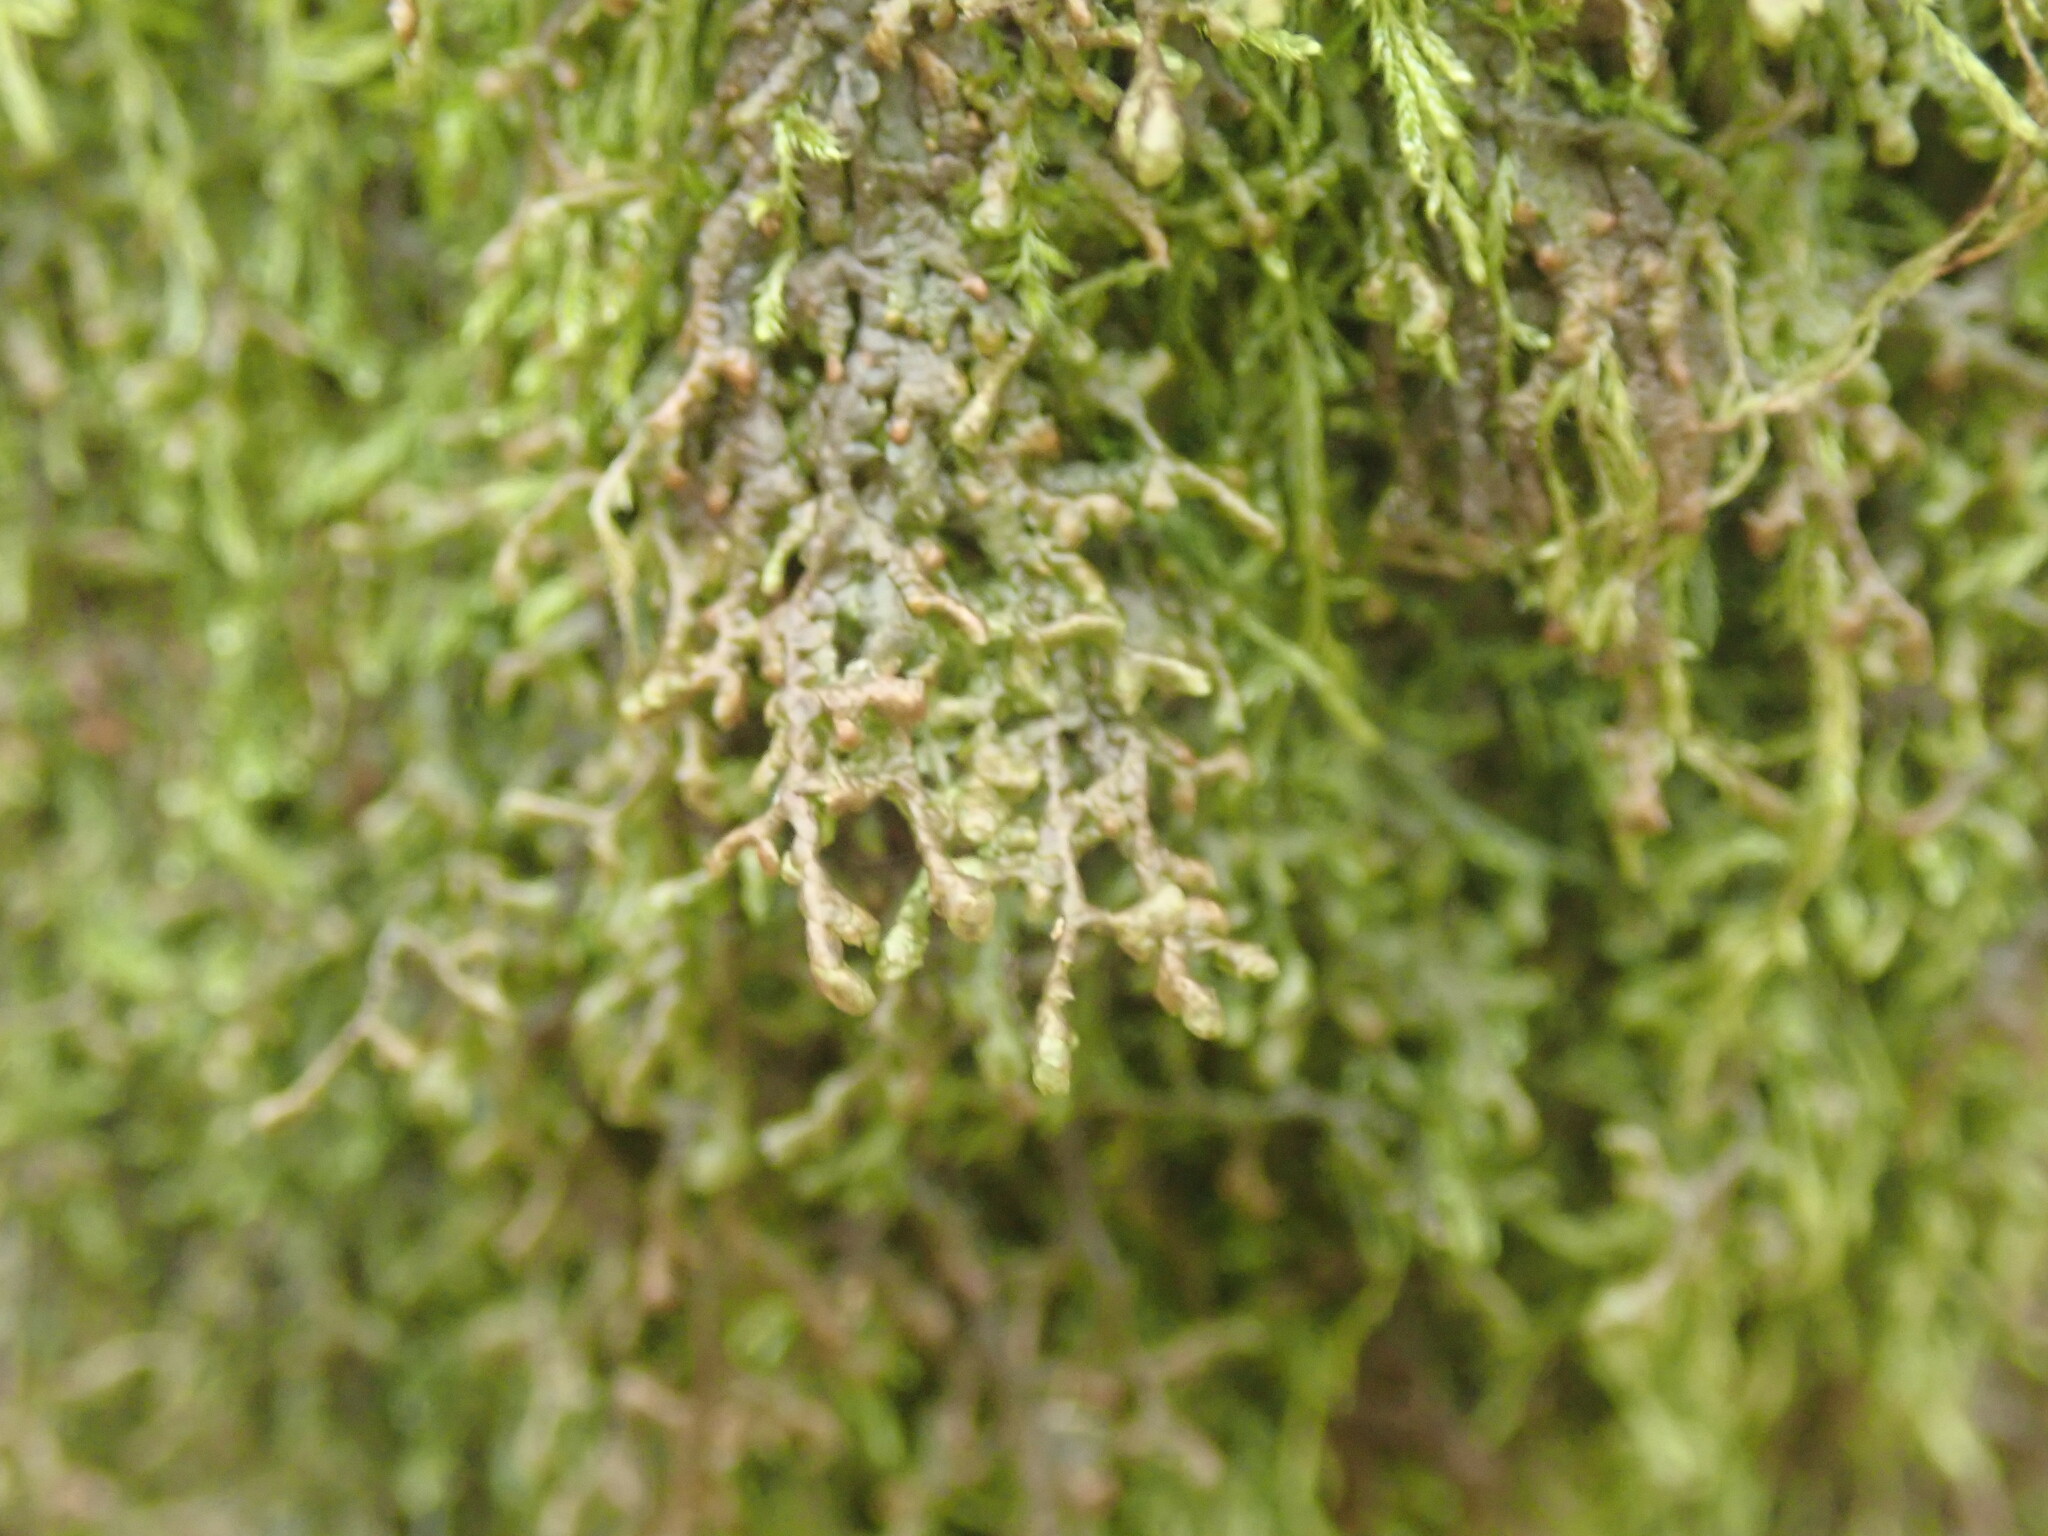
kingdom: Plantae
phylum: Marchantiophyta
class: Jungermanniopsida
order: Porellales
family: Frullaniaceae
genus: Frullania
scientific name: Frullania tamarisci
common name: Tamarisk scalewort
